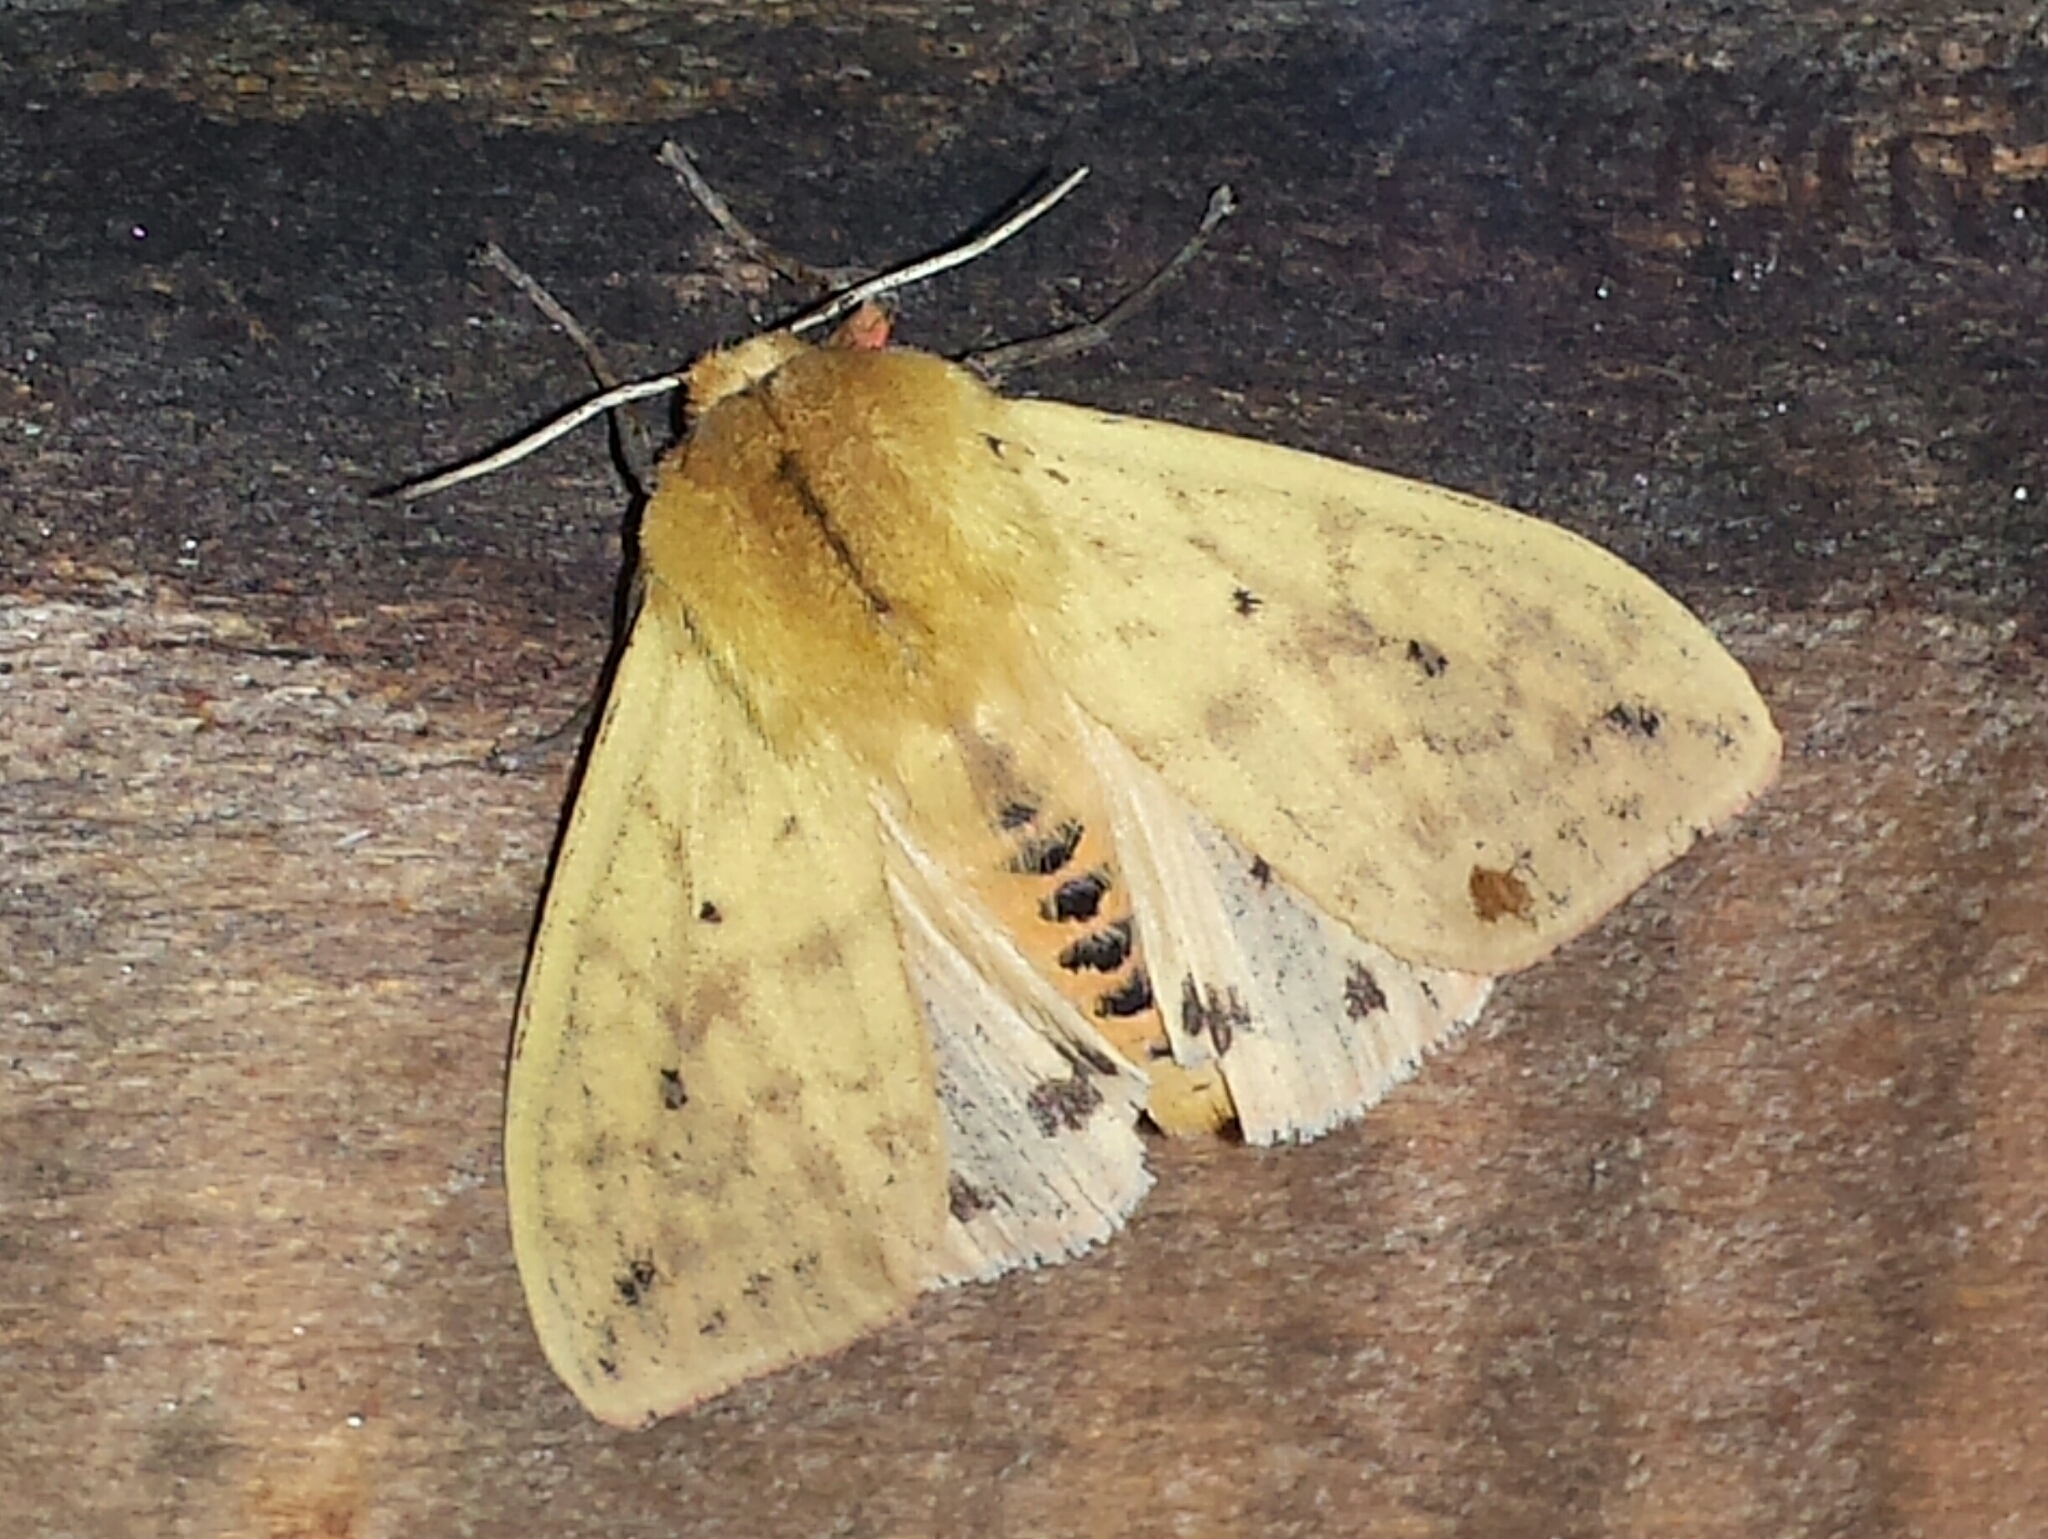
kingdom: Animalia
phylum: Arthropoda
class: Insecta
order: Lepidoptera
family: Erebidae
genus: Pyrrharctia
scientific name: Pyrrharctia isabella
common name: Isabella tiger moth
